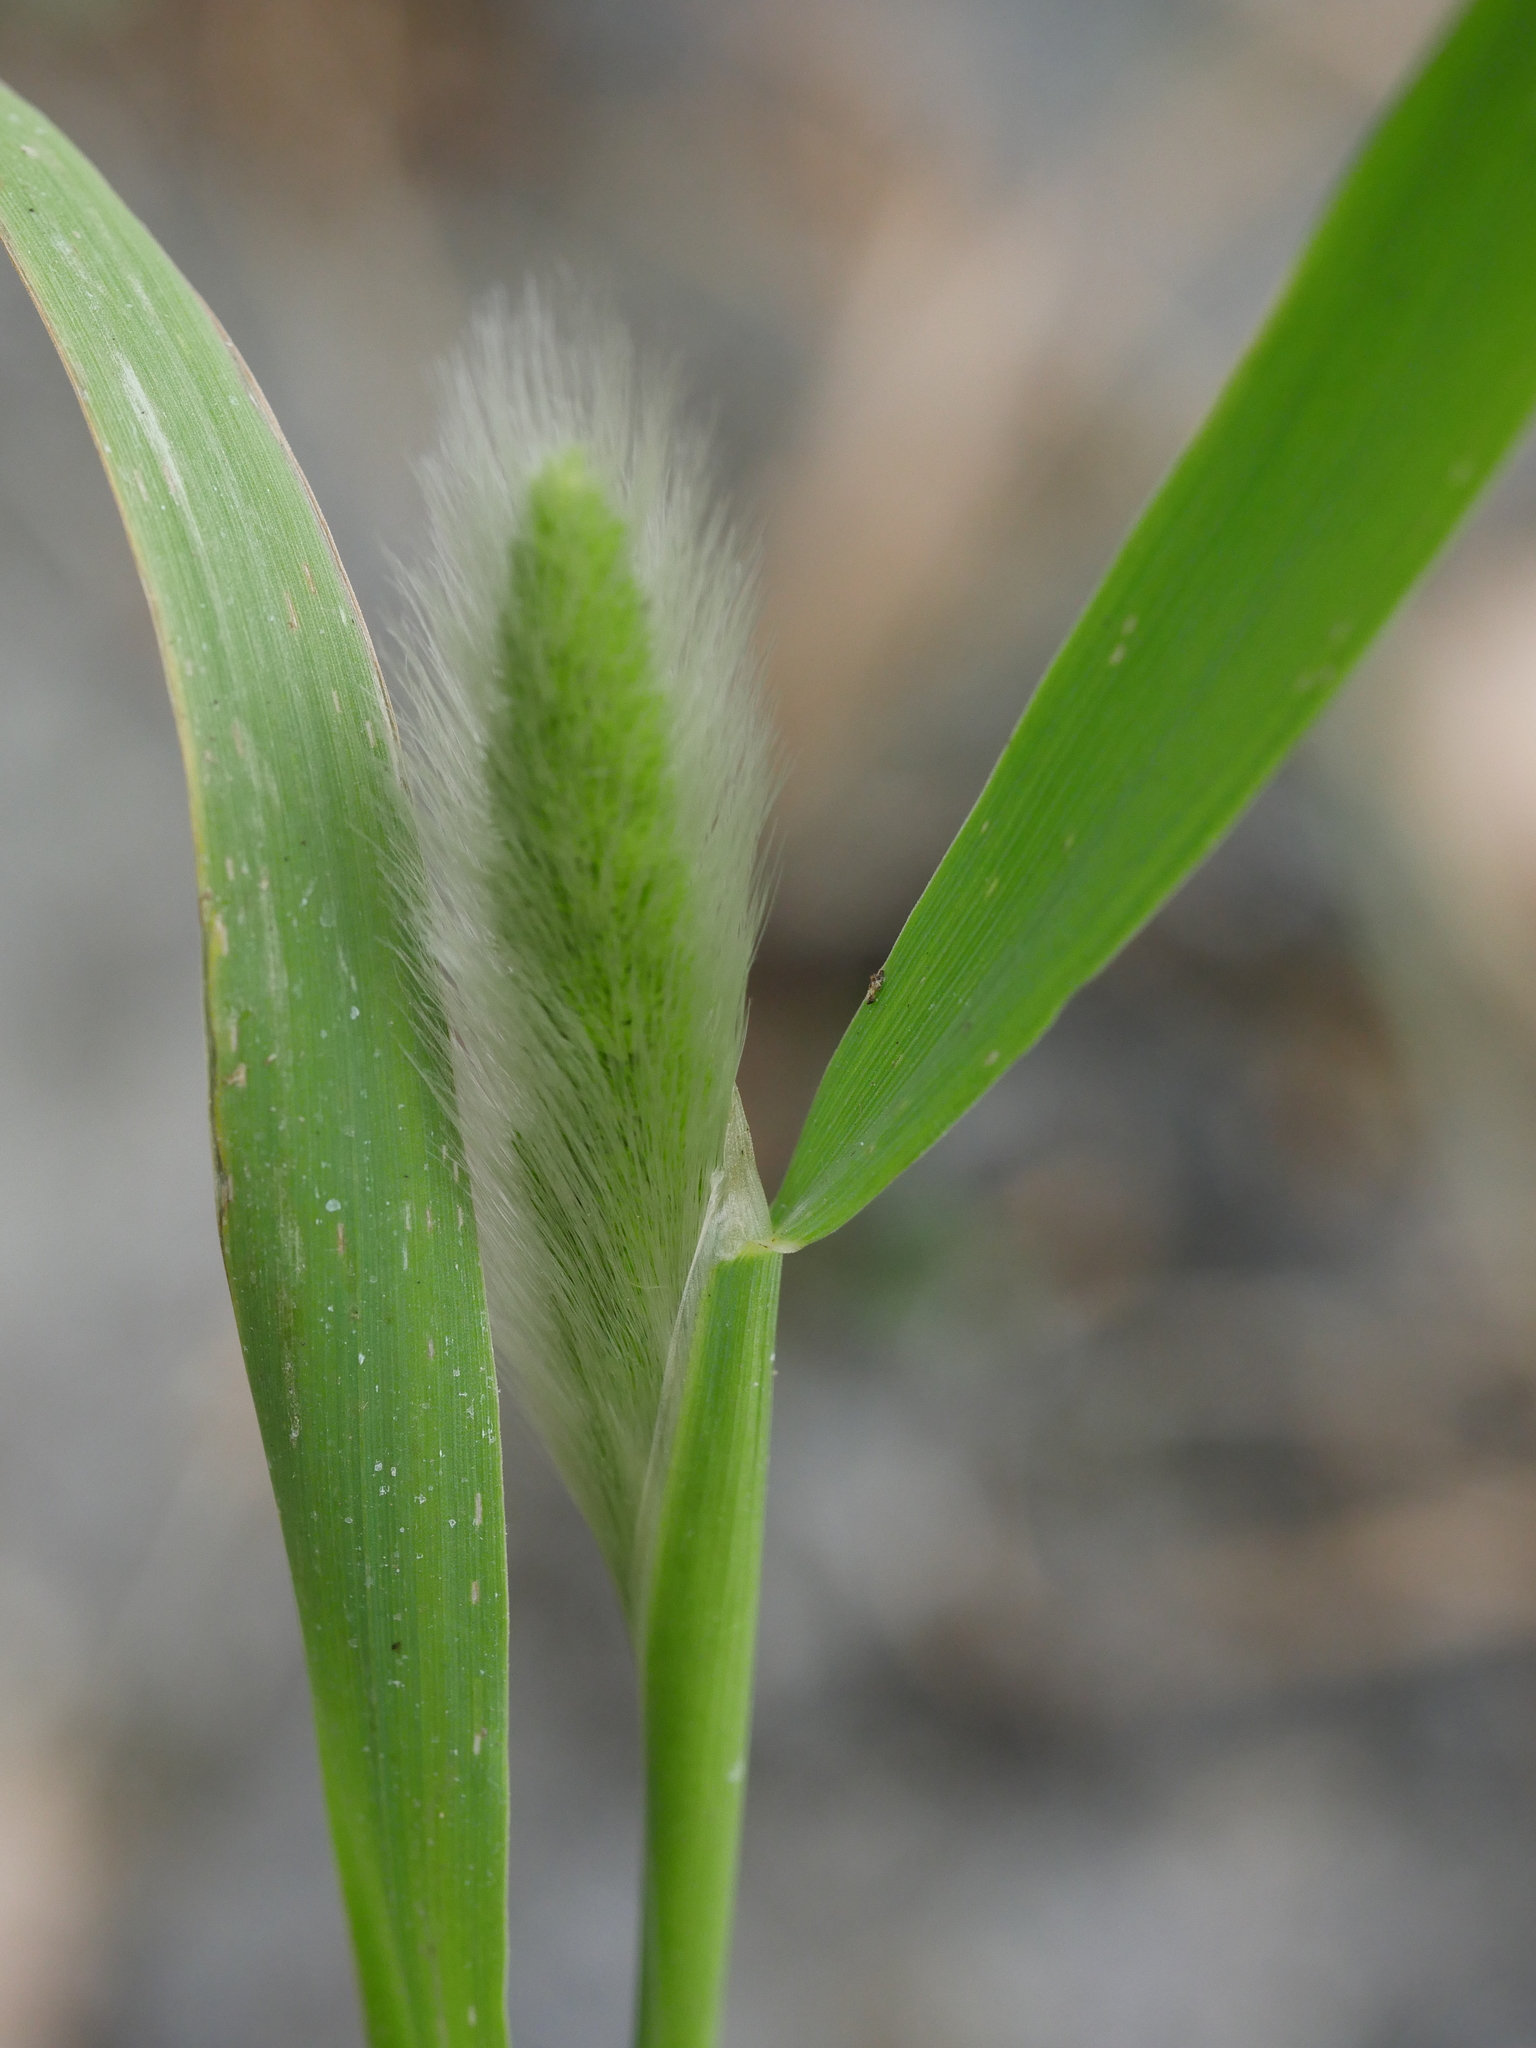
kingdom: Plantae
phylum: Tracheophyta
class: Liliopsida
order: Poales
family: Poaceae
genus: Polypogon
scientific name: Polypogon monspeliensis
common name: Annual rabbitsfoot grass
